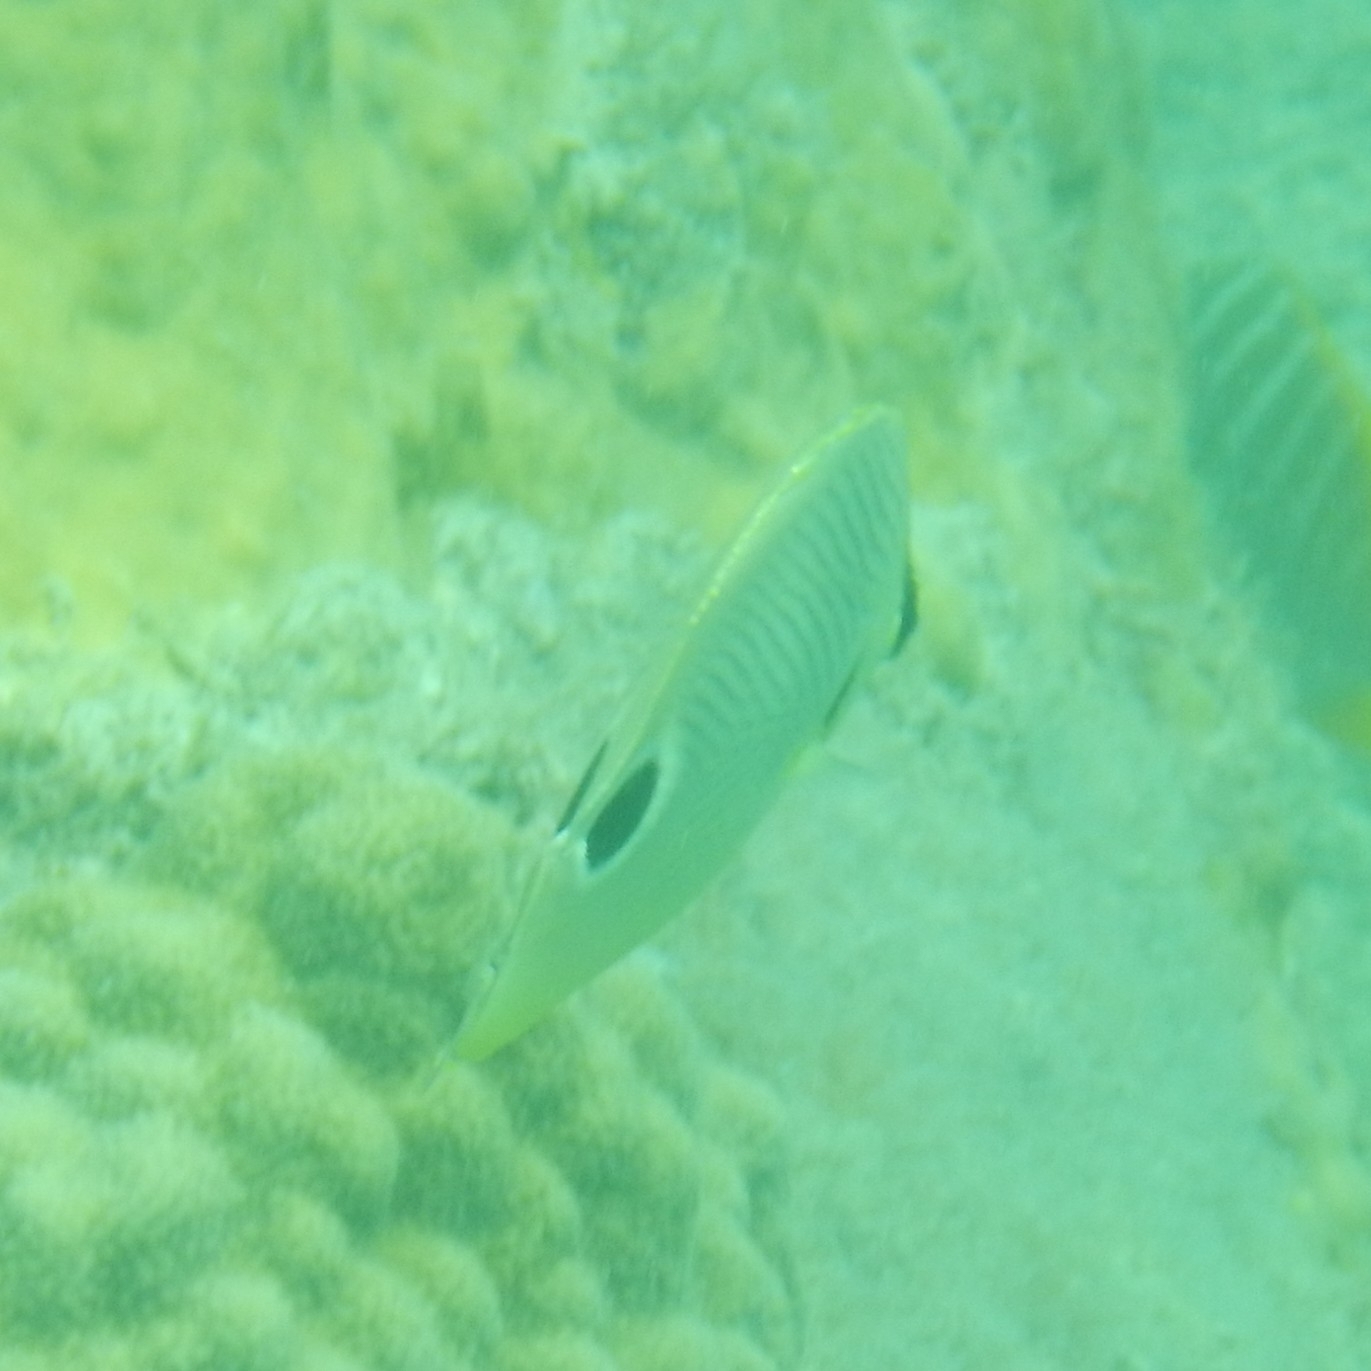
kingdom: Animalia
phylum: Chordata
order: Perciformes
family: Chaetodontidae
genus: Chaetodon
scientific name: Chaetodon capistratus
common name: Kete
